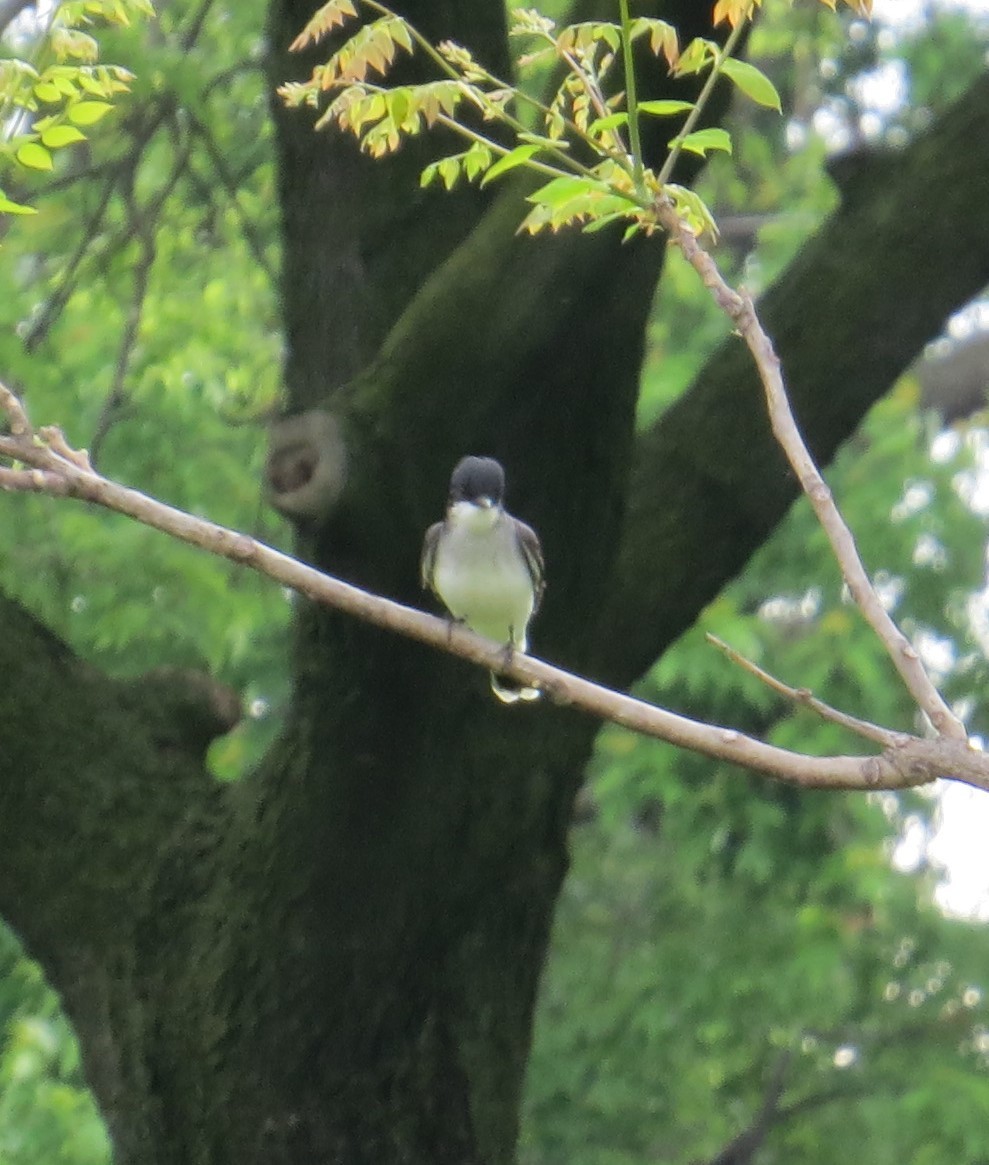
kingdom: Animalia
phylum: Chordata
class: Aves
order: Passeriformes
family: Tyrannidae
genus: Tyrannus
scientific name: Tyrannus tyrannus
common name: Eastern kingbird
